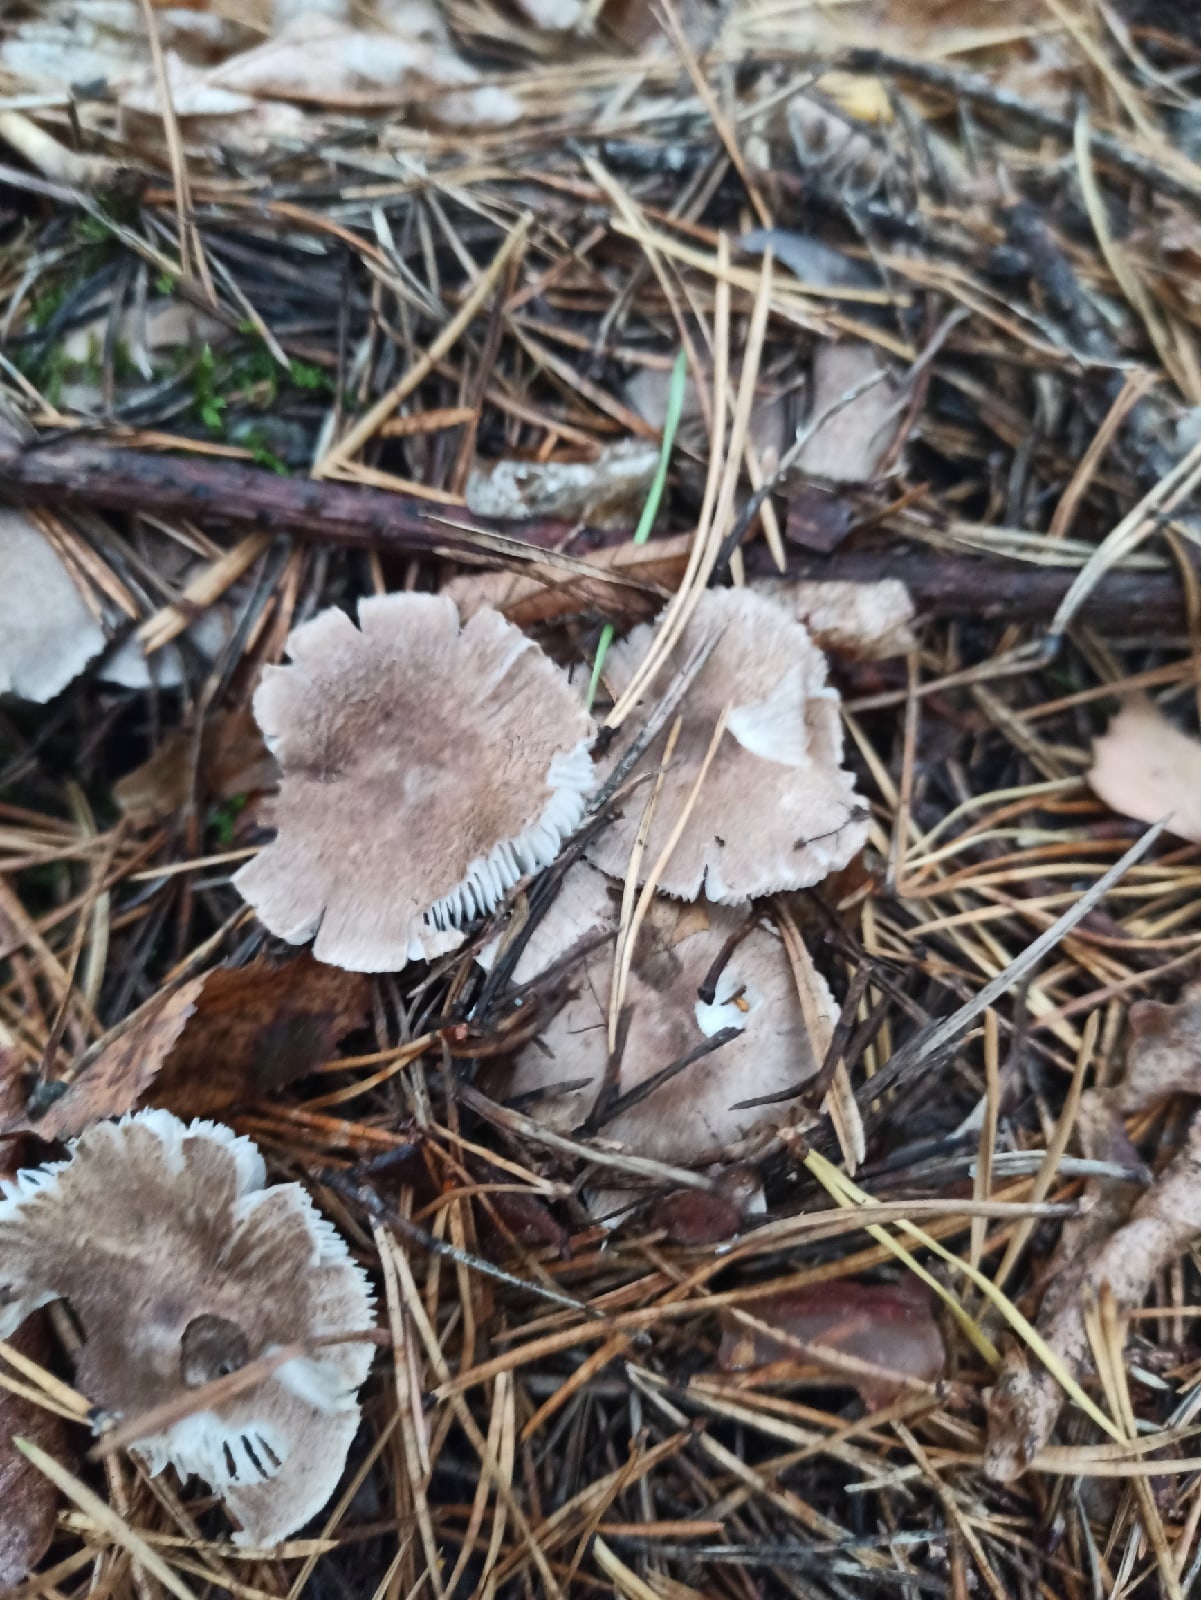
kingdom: Fungi
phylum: Basidiomycota
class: Agaricomycetes
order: Agaricales
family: Tricholomataceae
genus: Tricholoma
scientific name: Tricholoma terreum
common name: Grey knight
